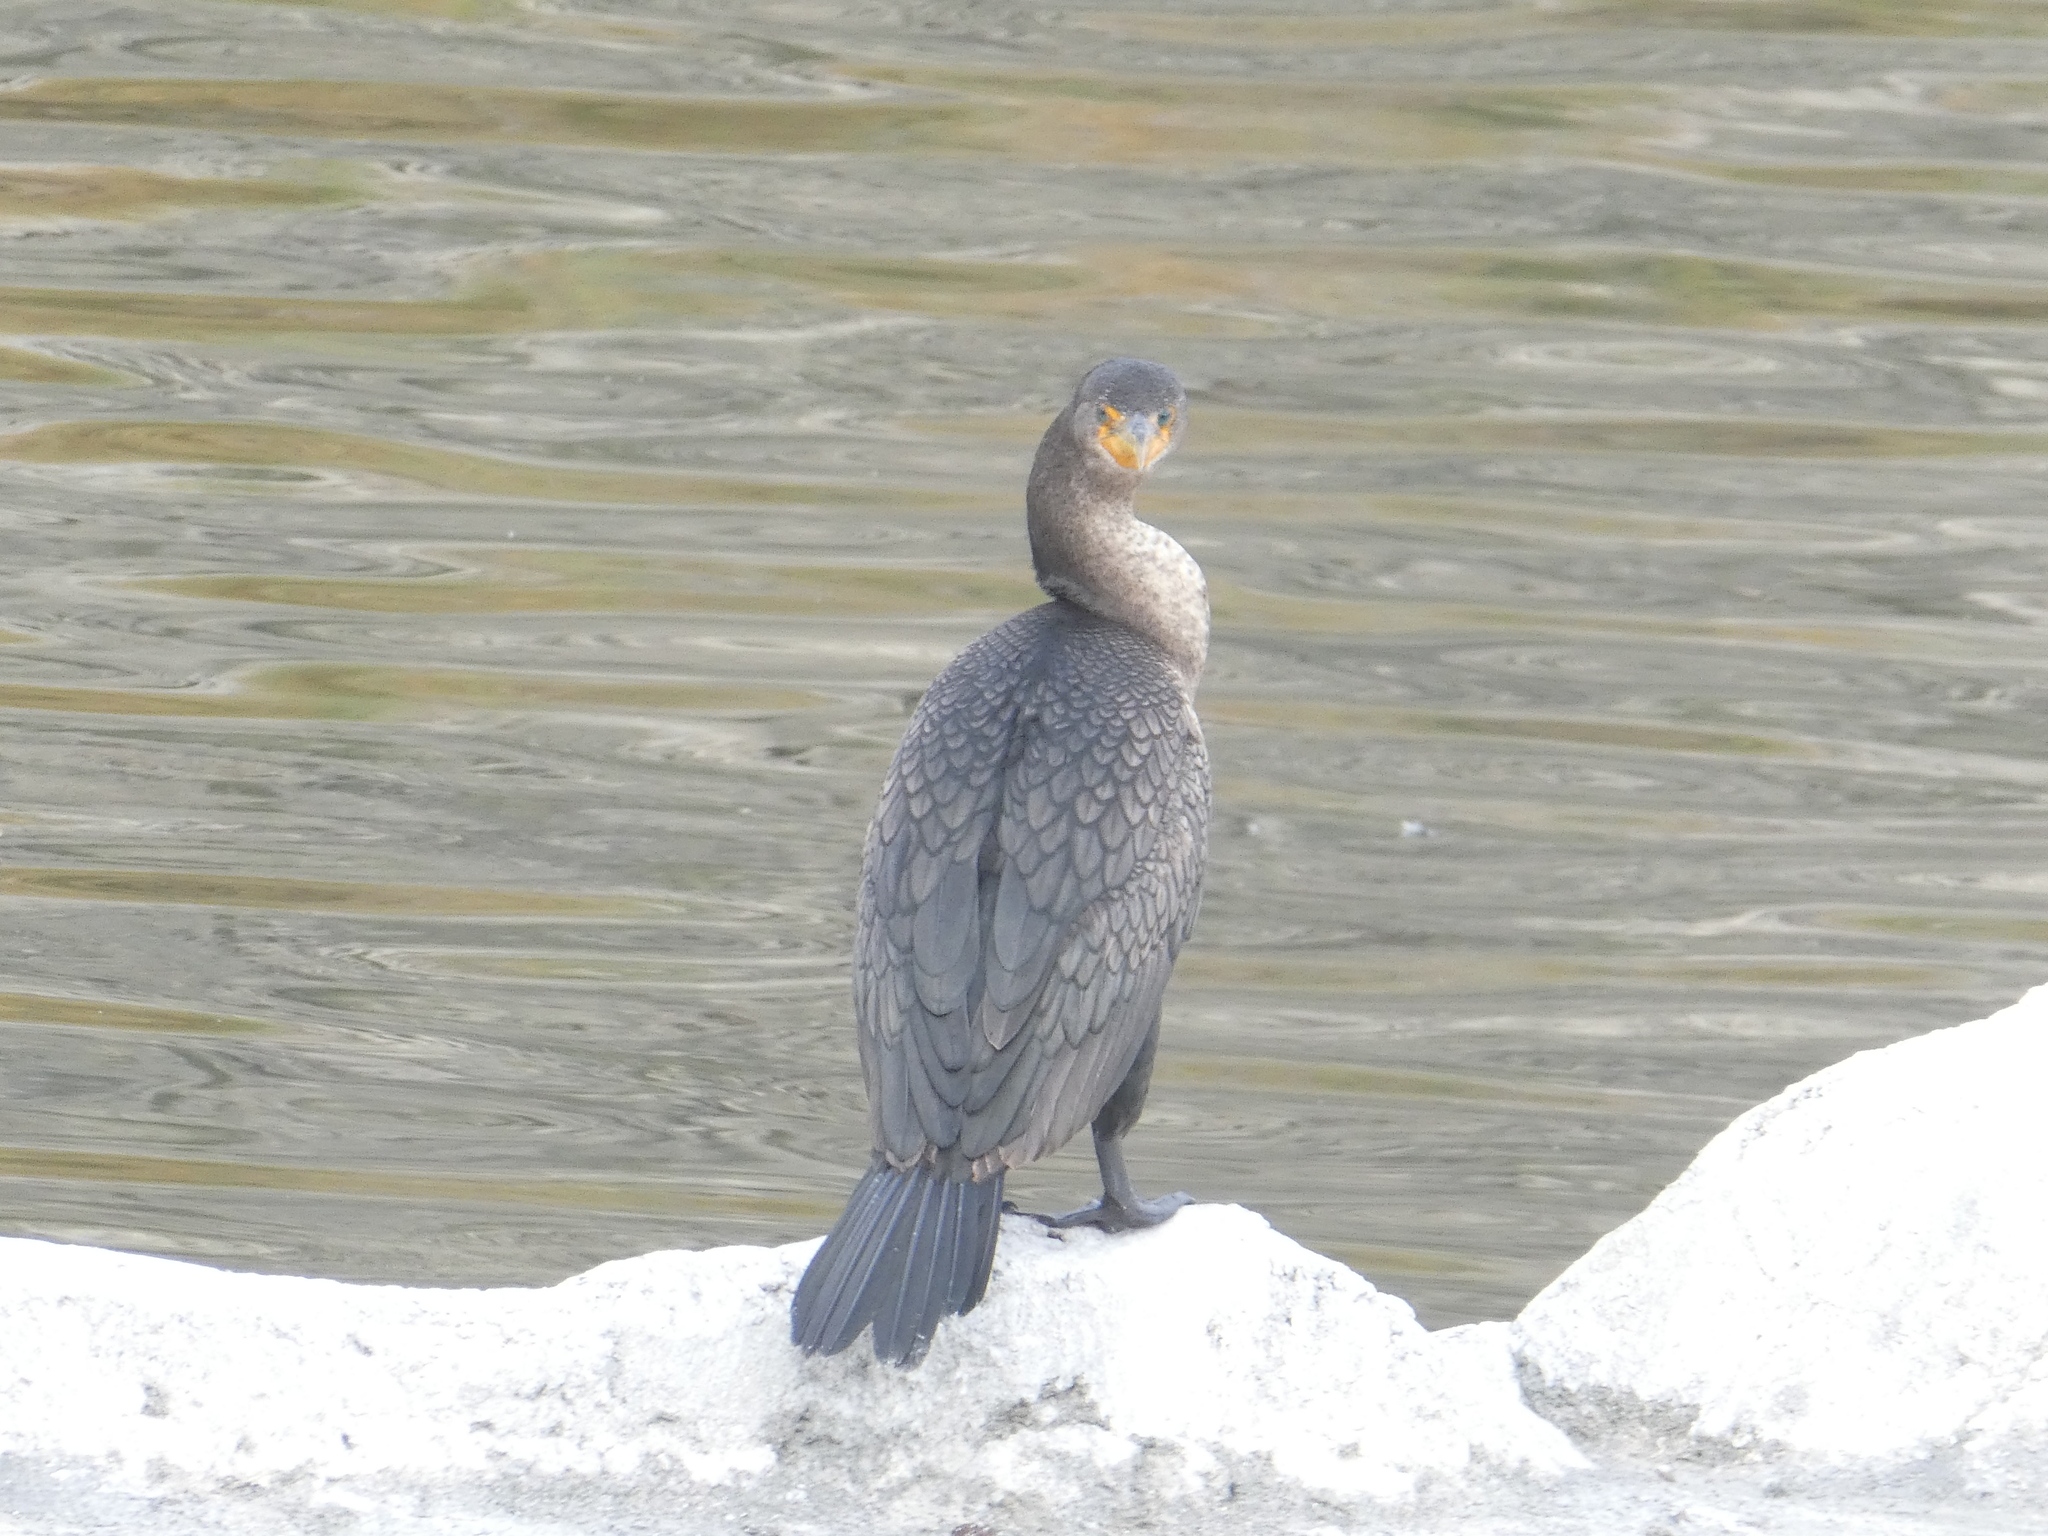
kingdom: Animalia
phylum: Chordata
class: Aves
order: Suliformes
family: Phalacrocoracidae
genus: Phalacrocorax
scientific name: Phalacrocorax auritus
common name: Double-crested cormorant
